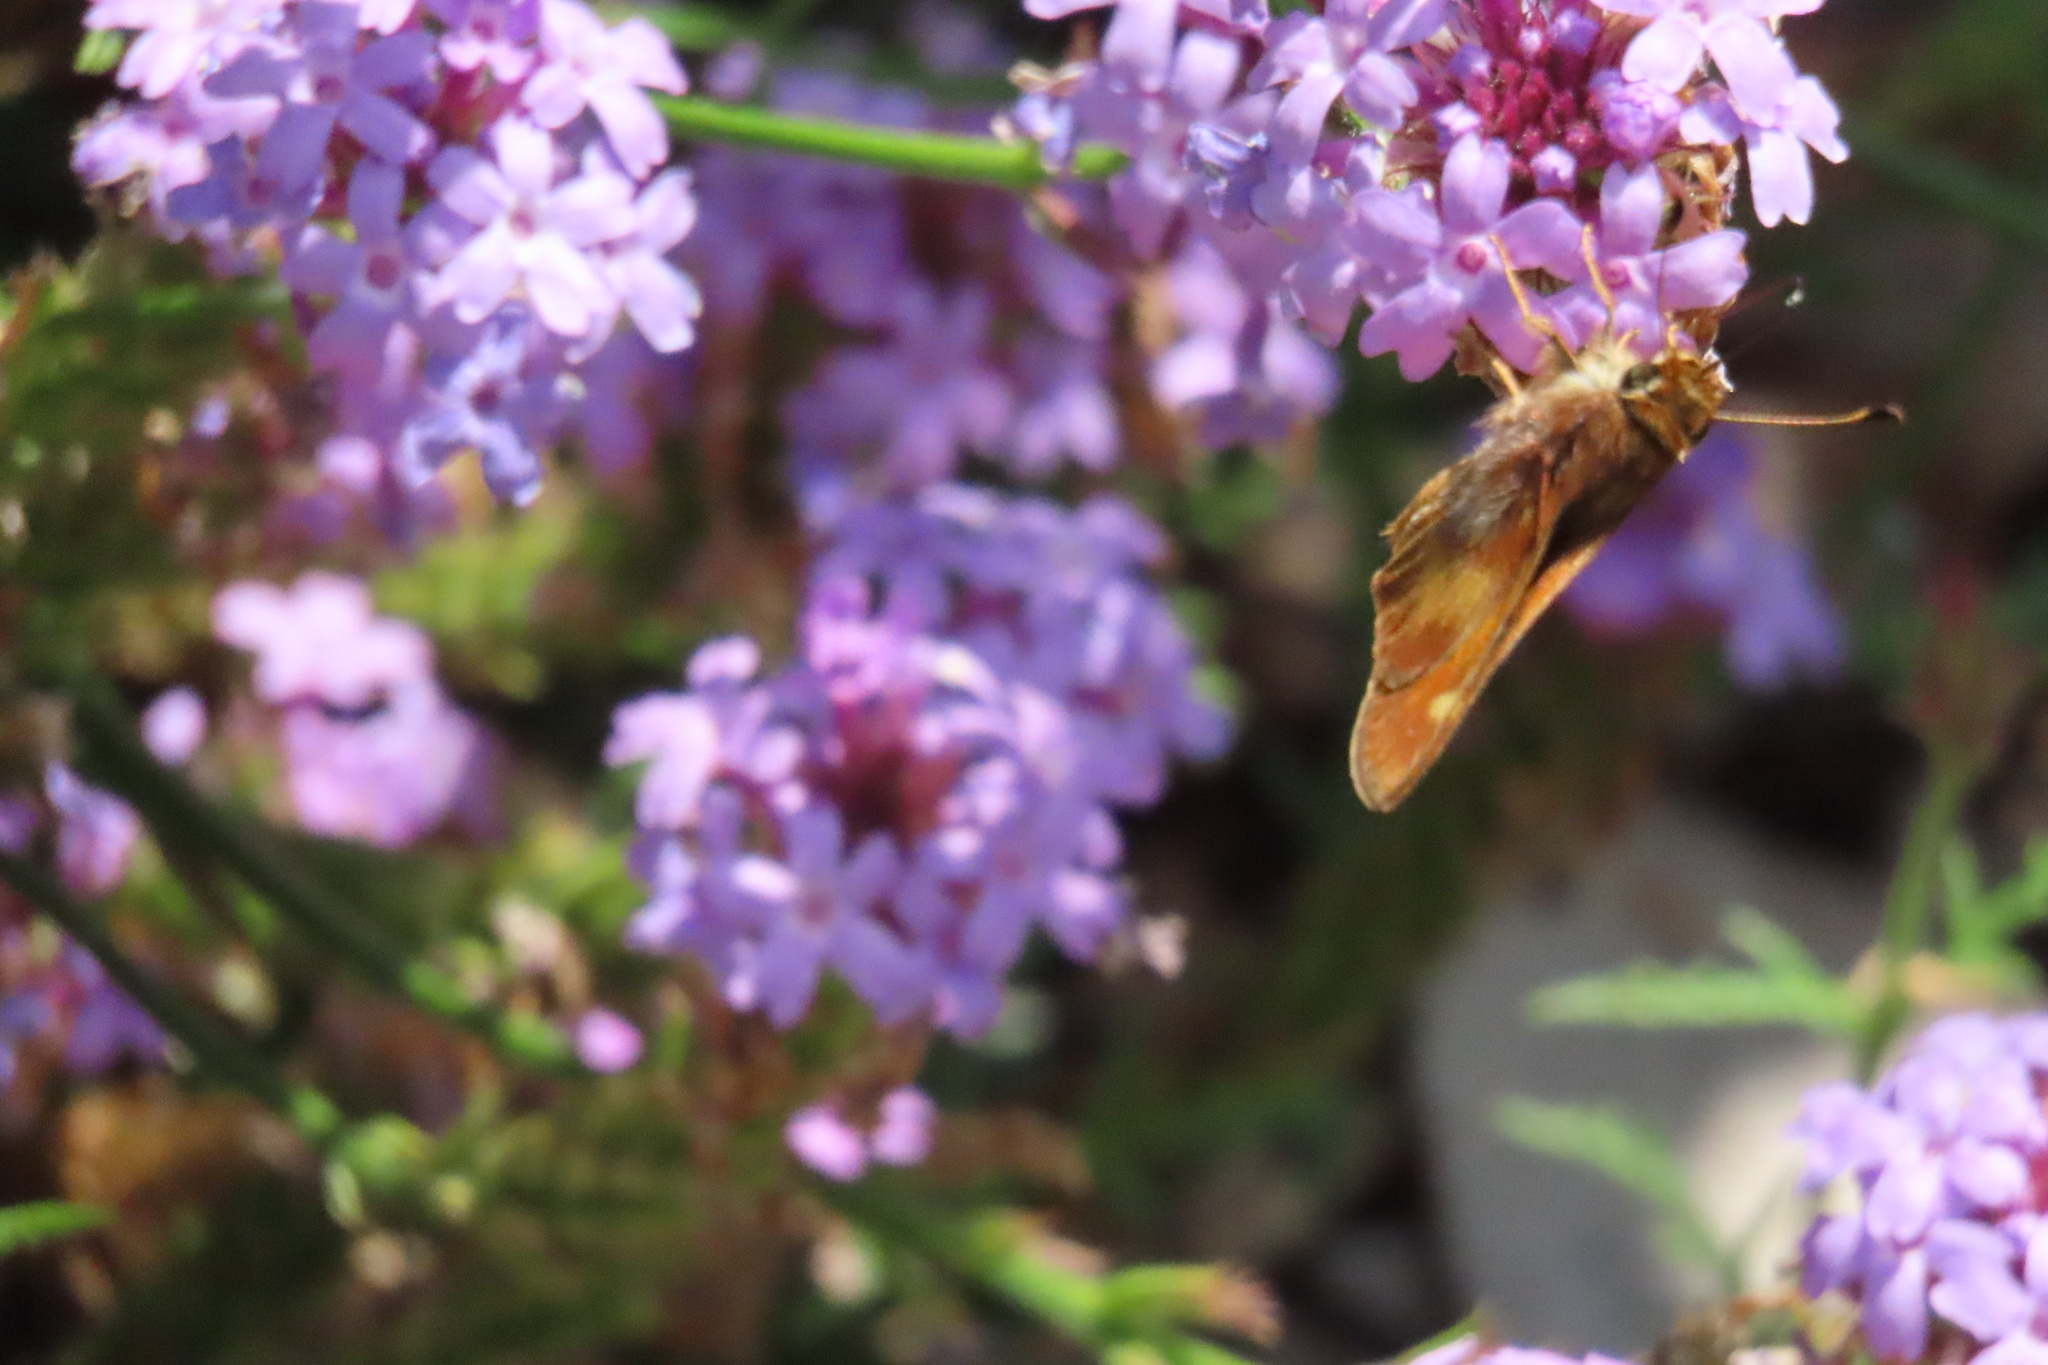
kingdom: Animalia
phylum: Arthropoda
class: Insecta
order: Lepidoptera
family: Hesperiidae
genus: Lon
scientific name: Lon melane
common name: Umber skipper
